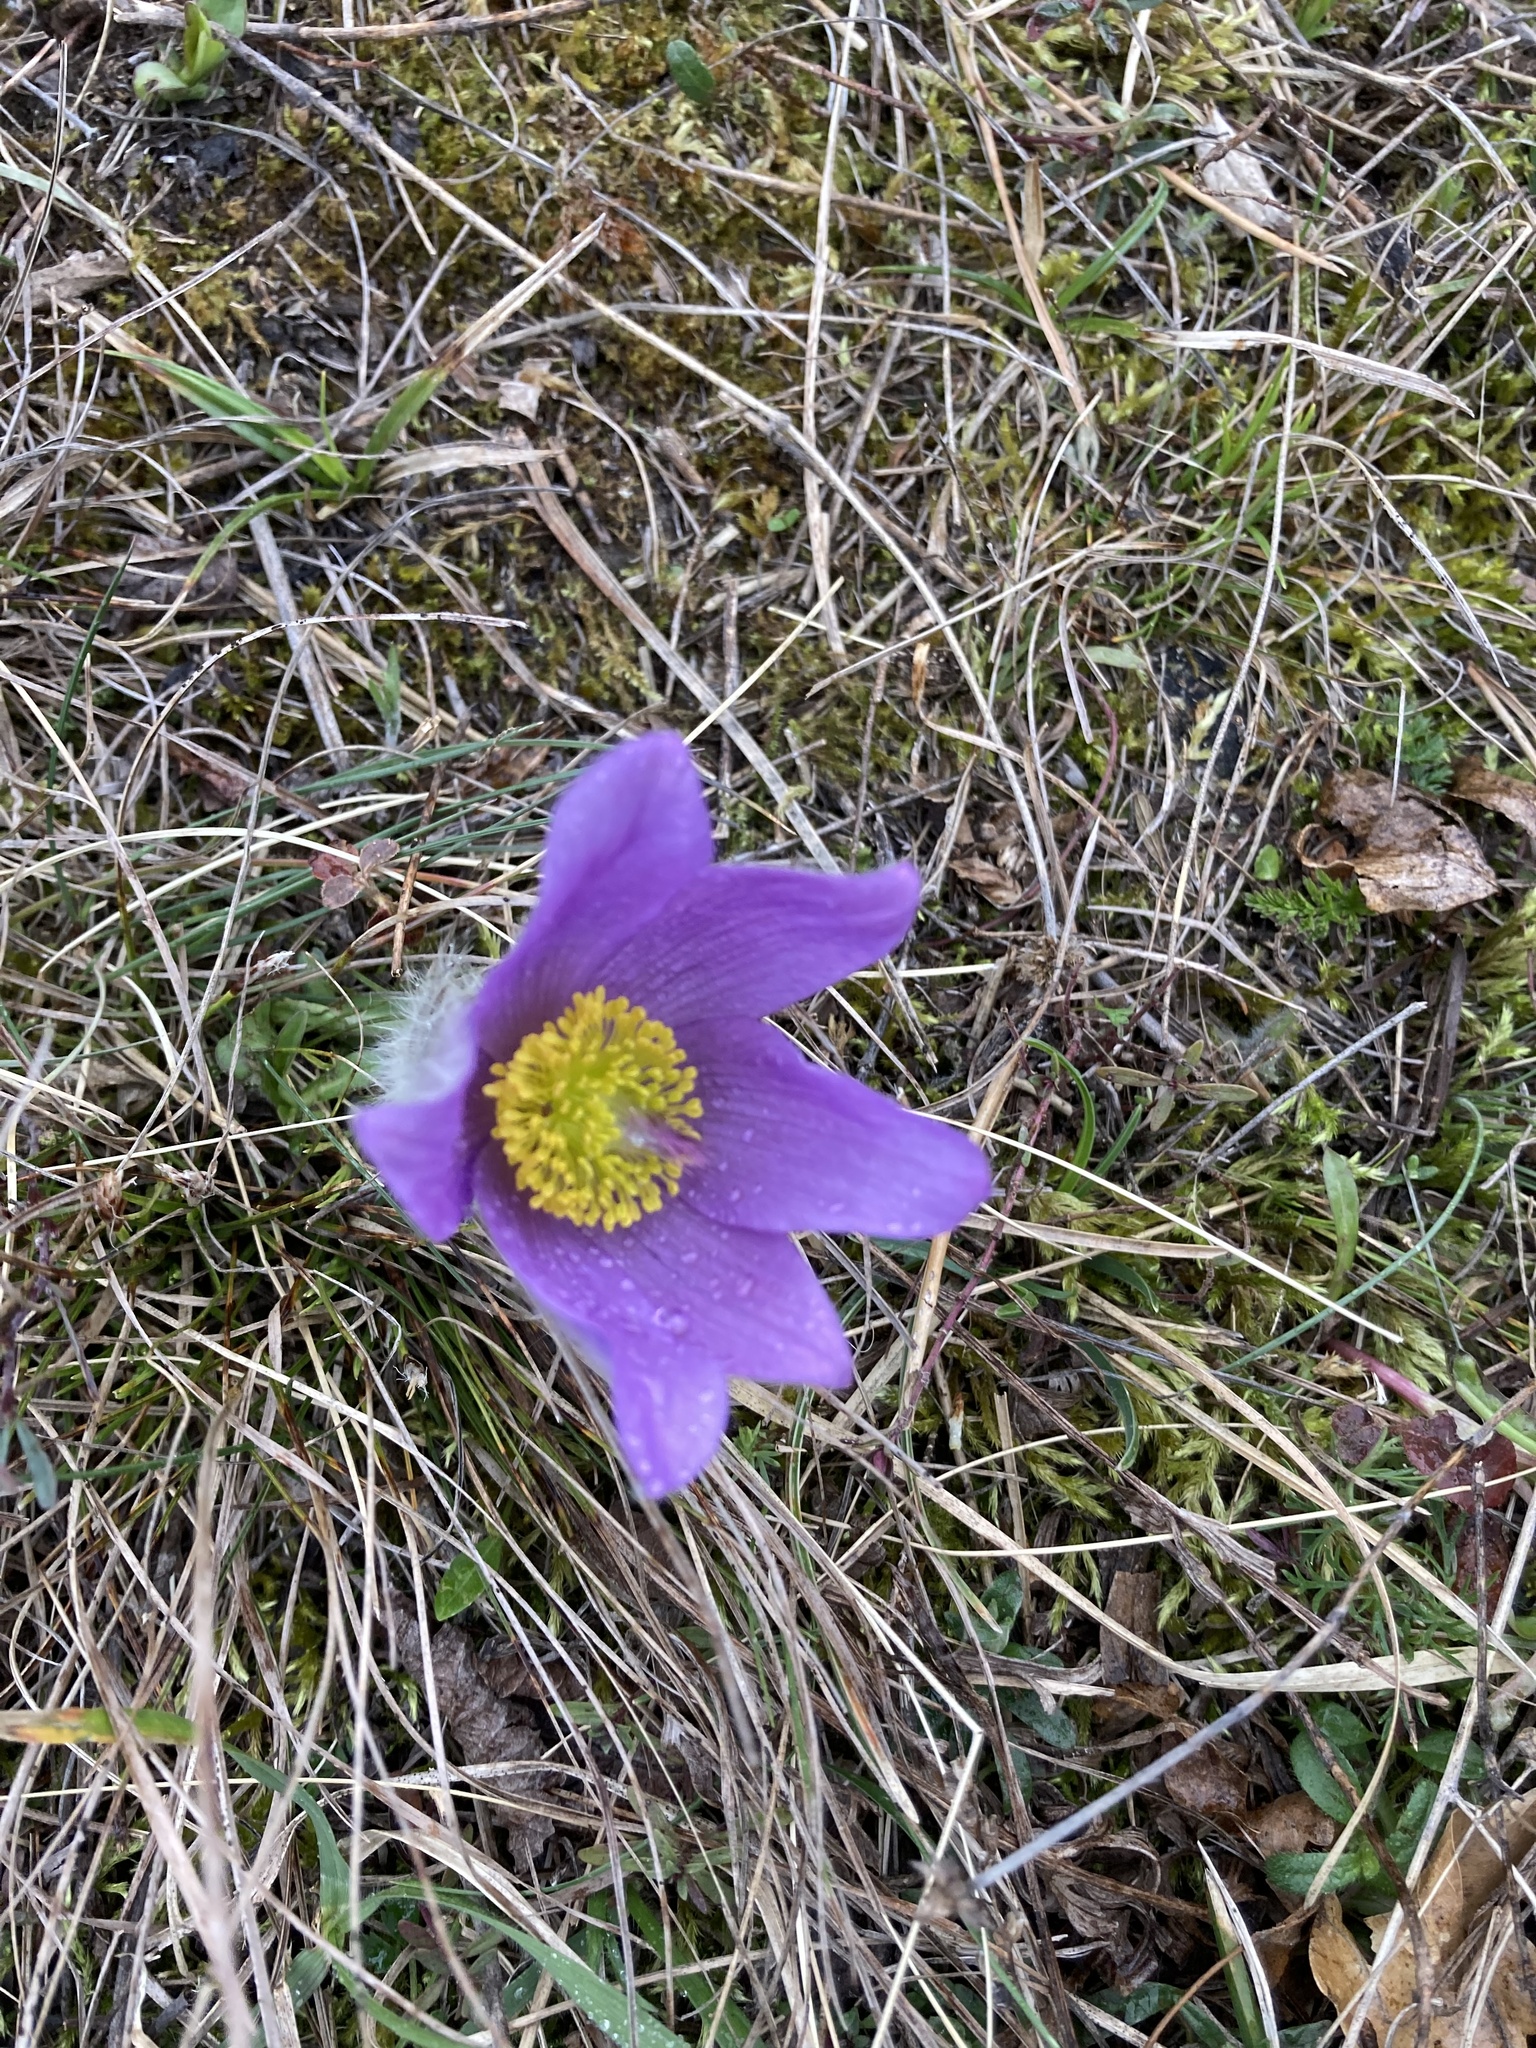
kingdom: Plantae
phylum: Tracheophyta
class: Magnoliopsida
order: Ranunculales
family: Ranunculaceae
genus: Pulsatilla
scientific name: Pulsatilla grandis
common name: Greater pasque flower
